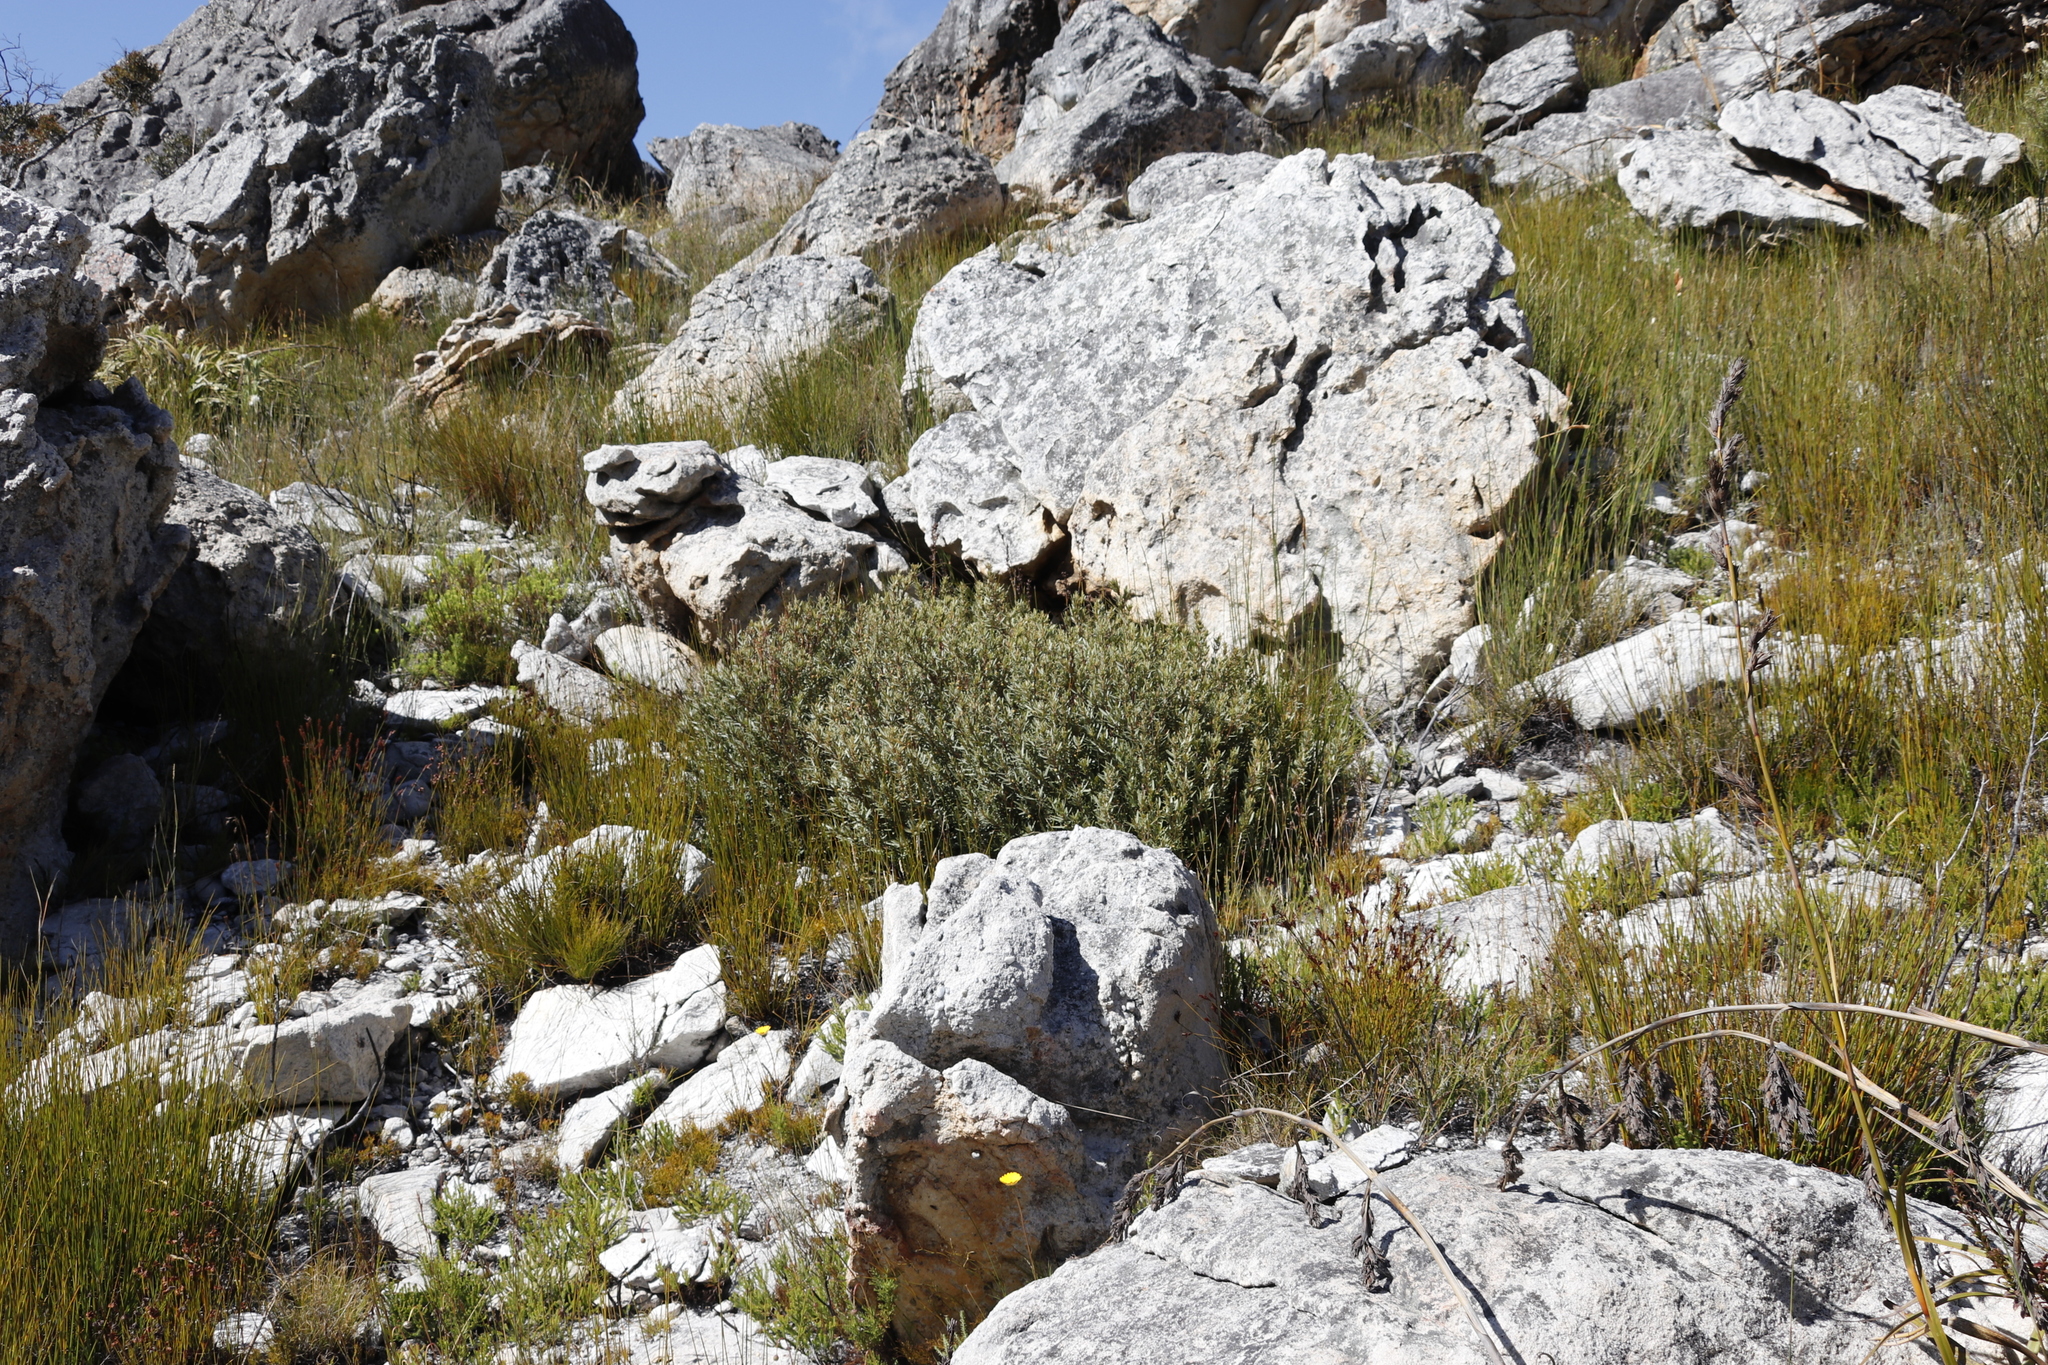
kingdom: Plantae
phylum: Tracheophyta
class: Magnoliopsida
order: Cornales
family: Grubbiaceae
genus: Grubbia
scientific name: Grubbia tomentosa
